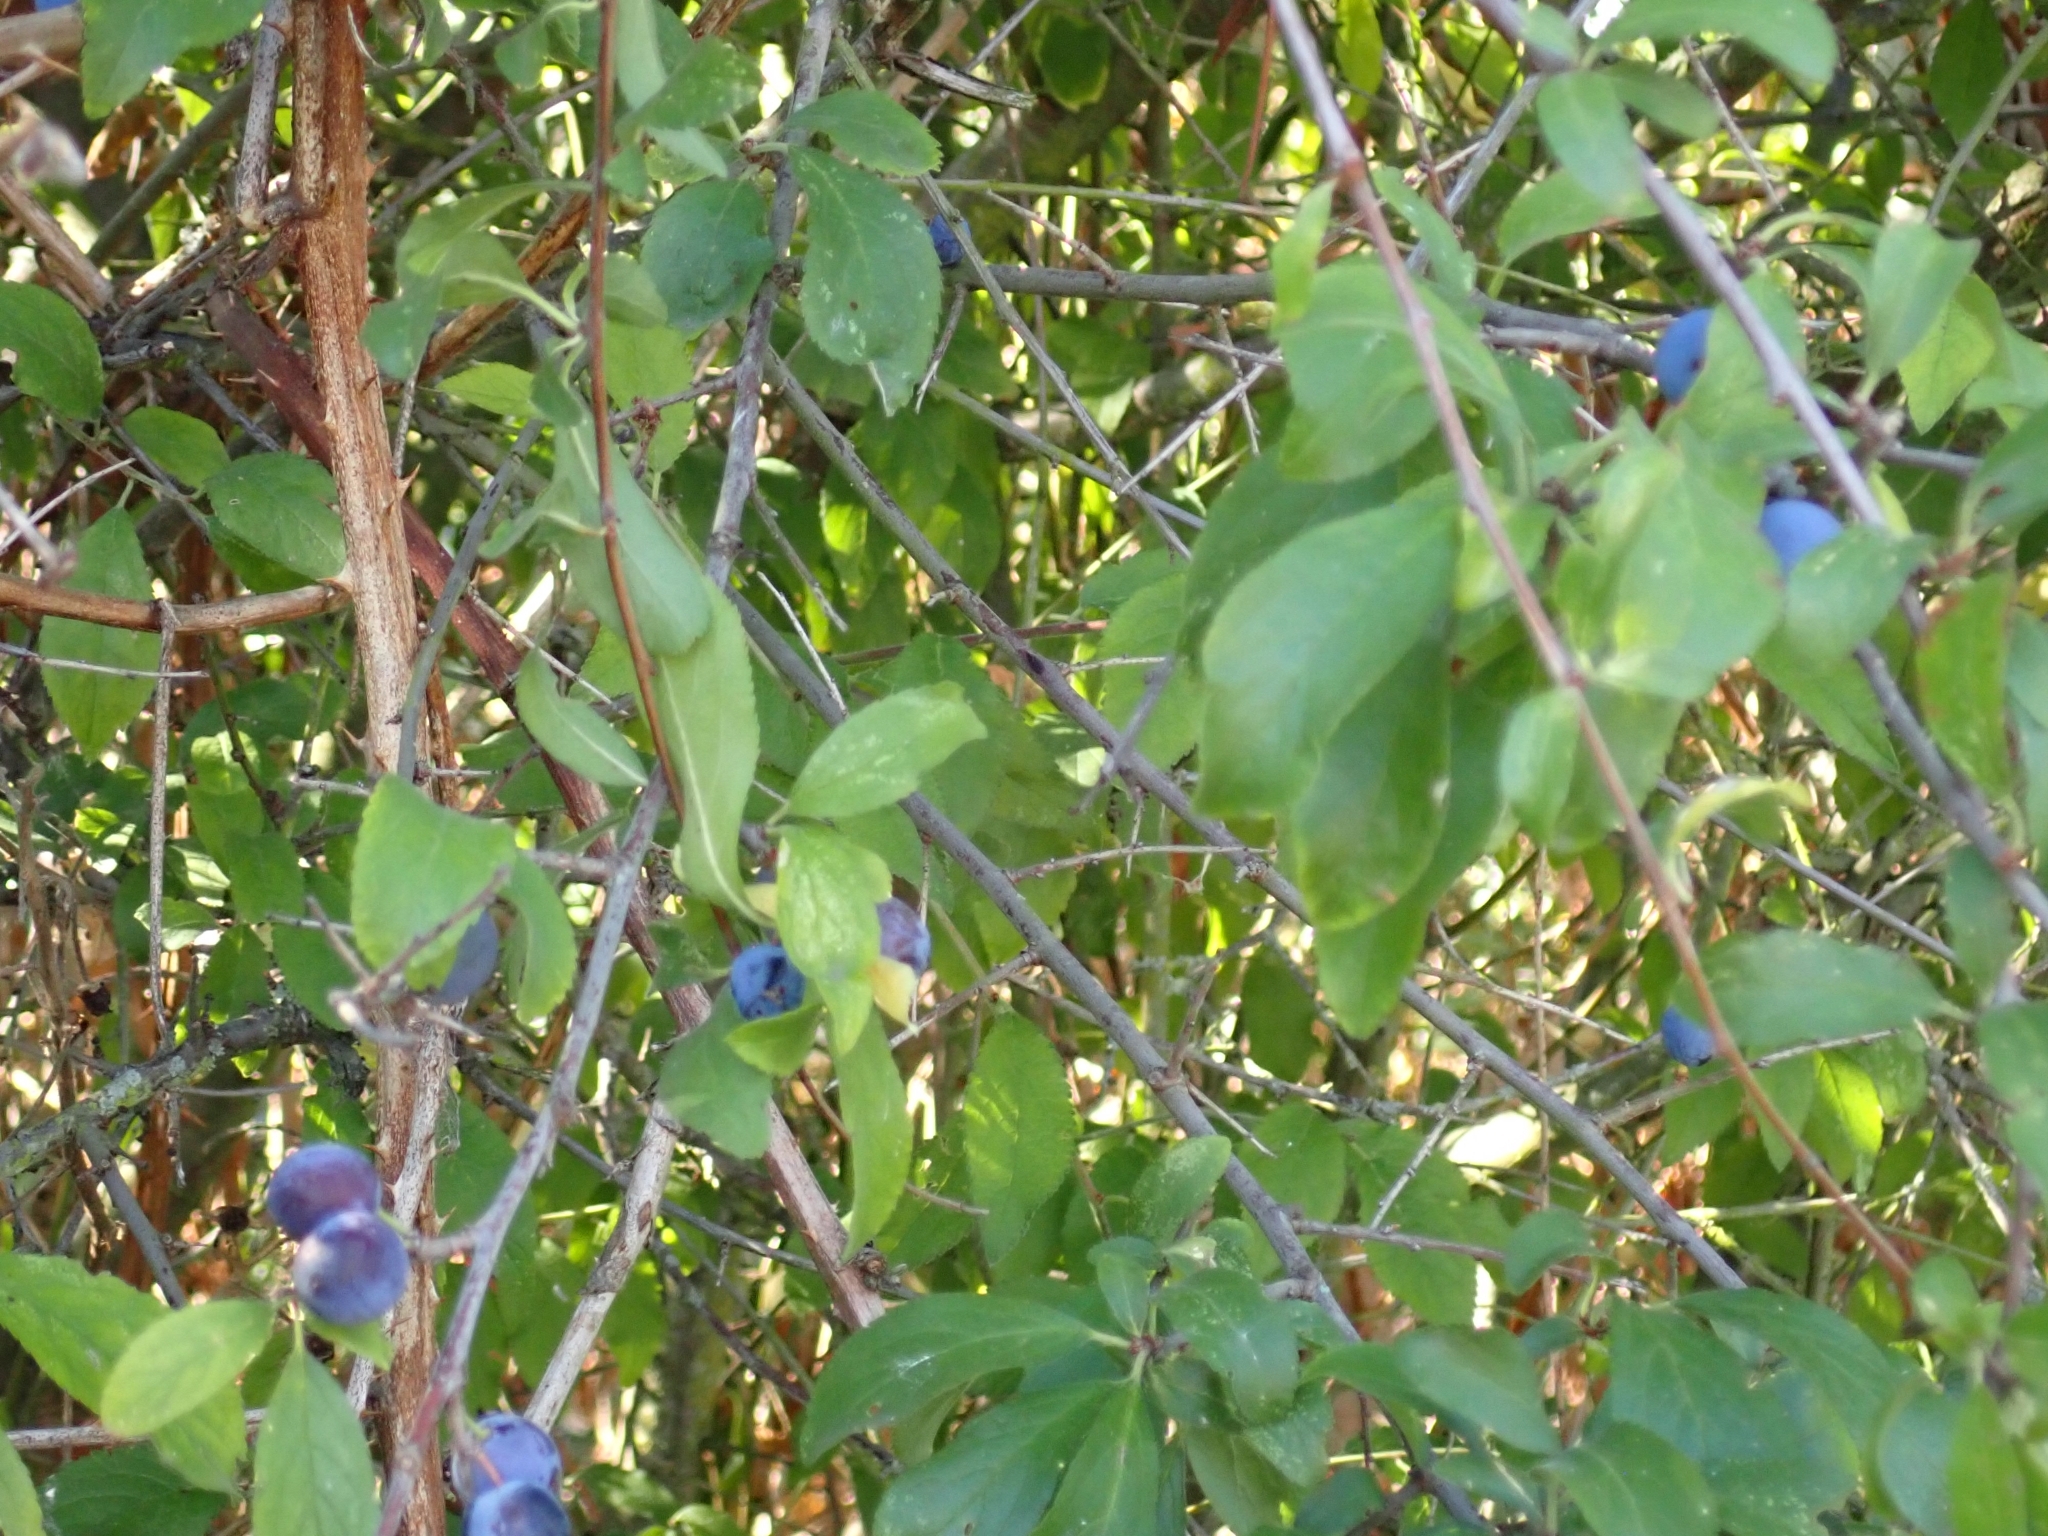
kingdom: Plantae
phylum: Tracheophyta
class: Magnoliopsida
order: Rosales
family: Rosaceae
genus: Prunus
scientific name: Prunus spinosa
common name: Blackthorn
